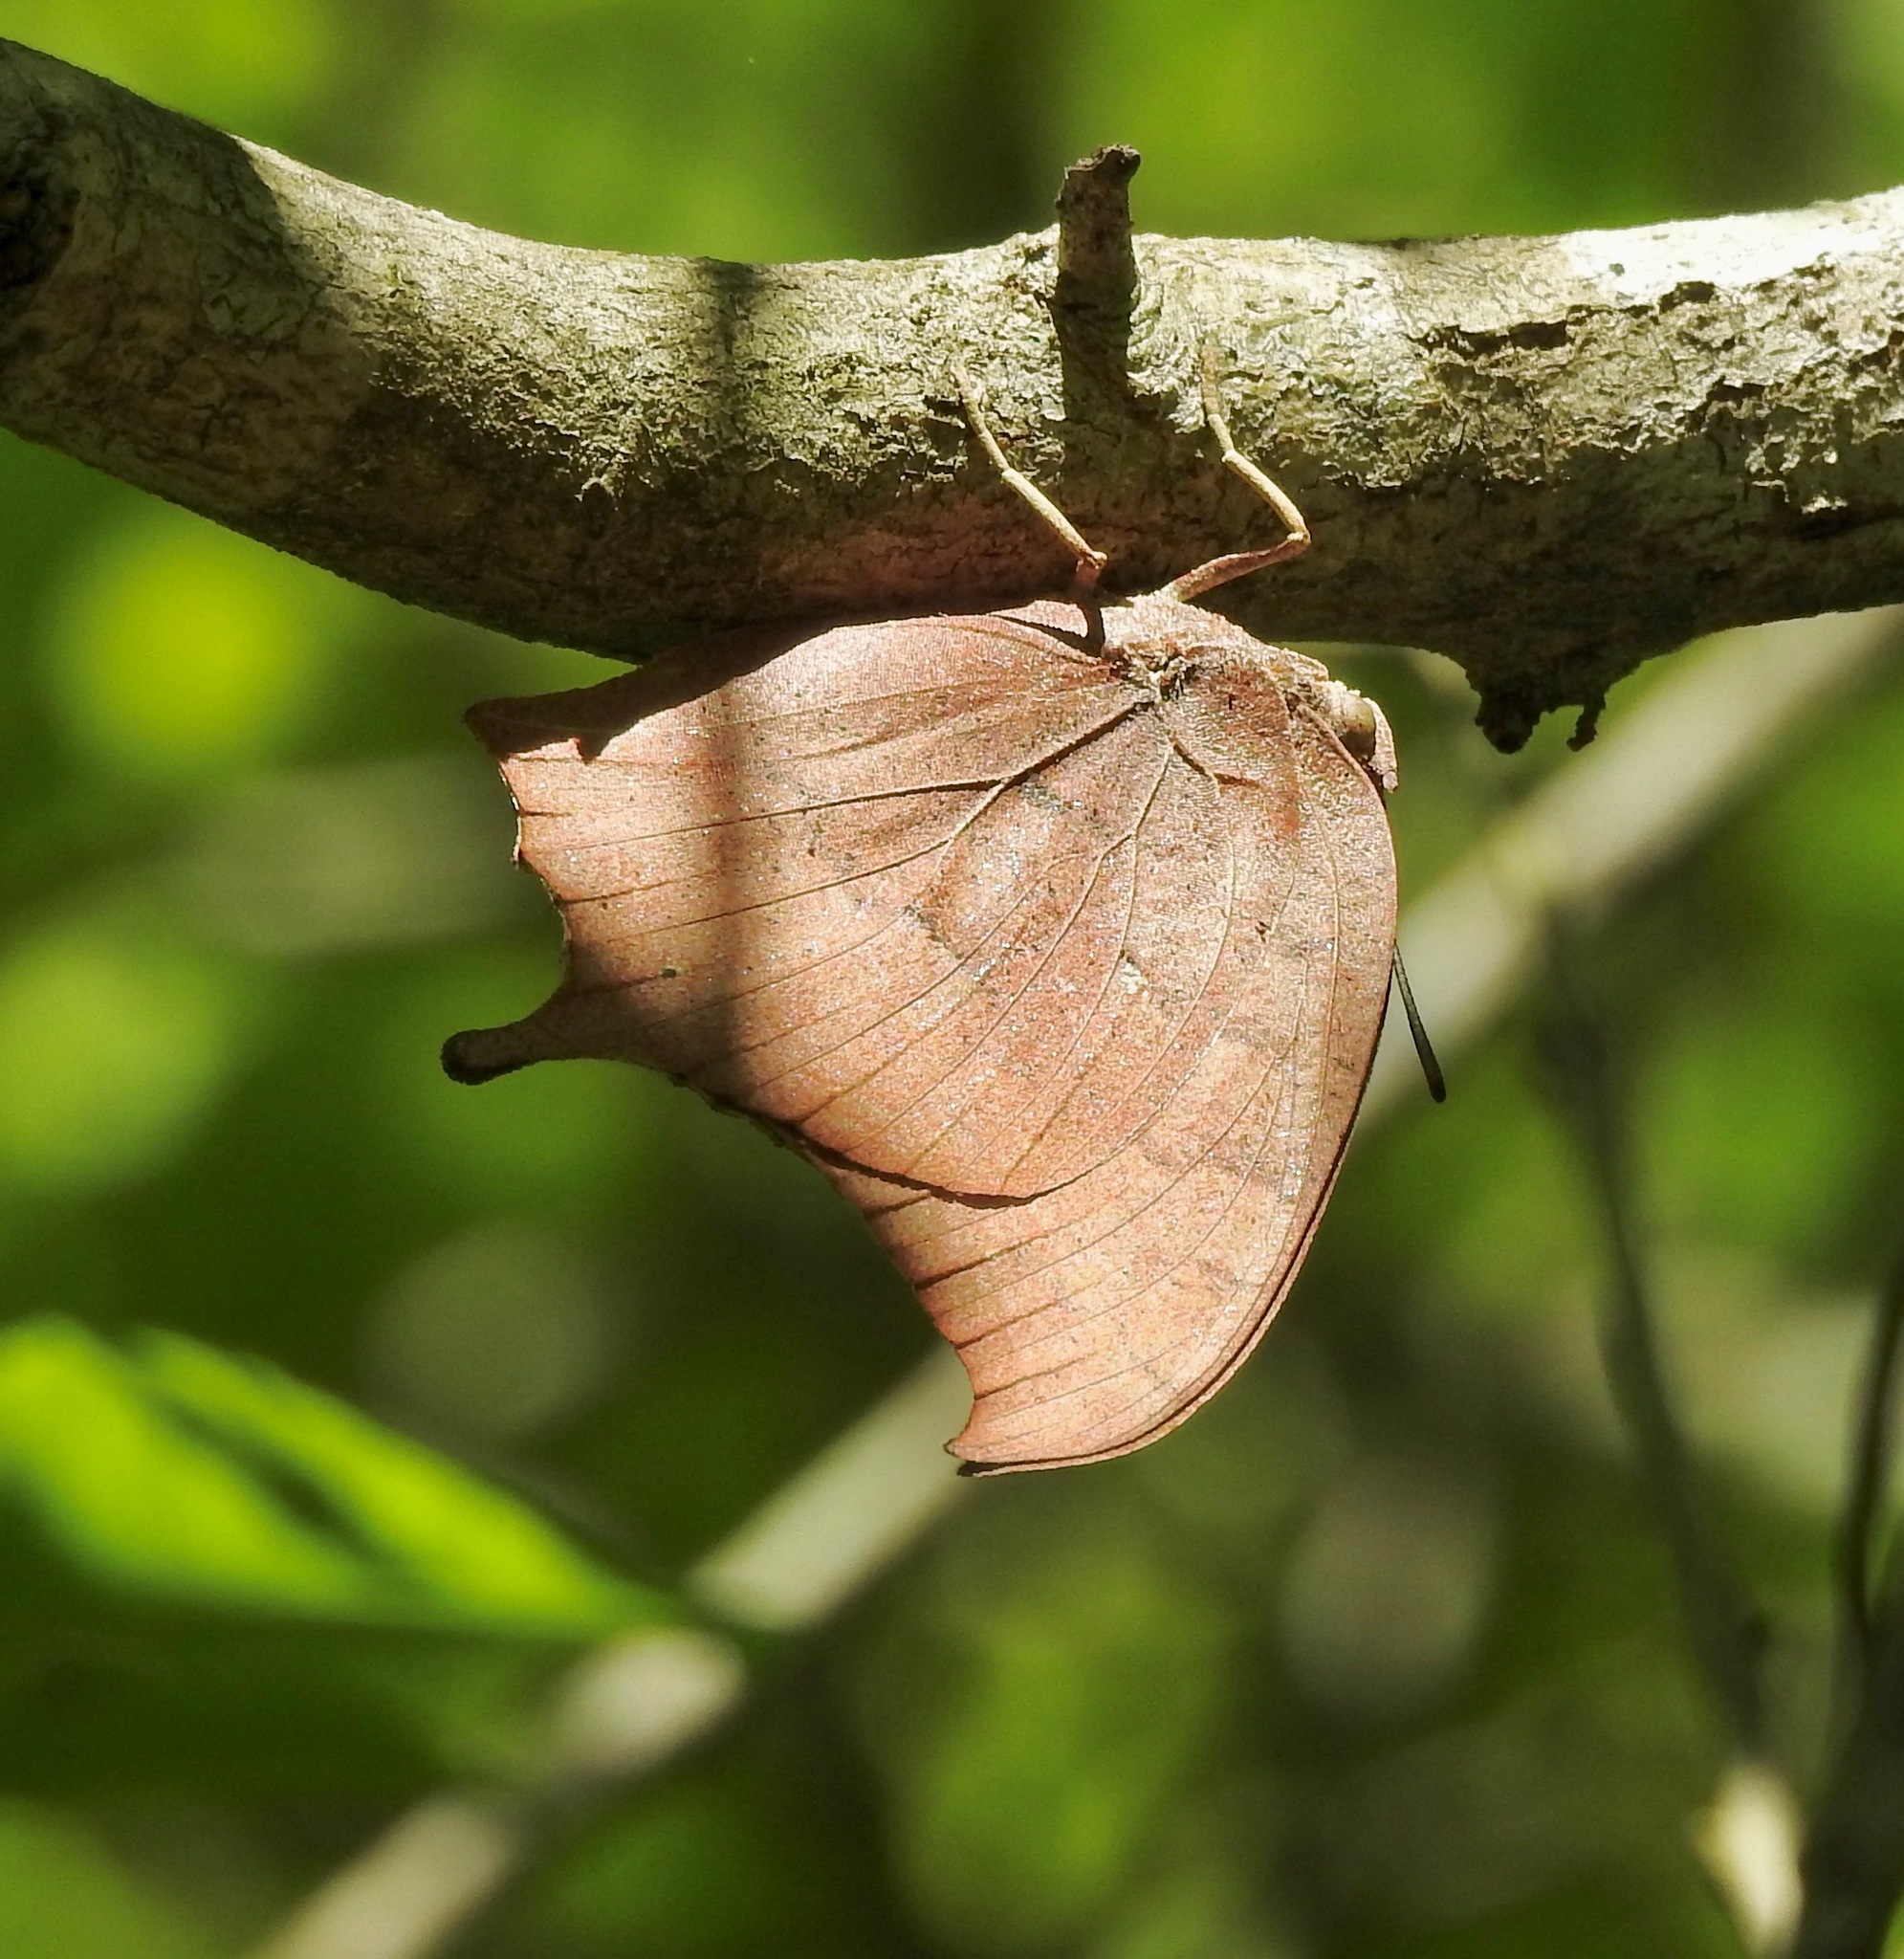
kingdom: Animalia
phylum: Arthropoda
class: Insecta
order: Lepidoptera
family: Nymphalidae
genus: Anaea
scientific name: Anaea andria
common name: Goatweed leafwing
